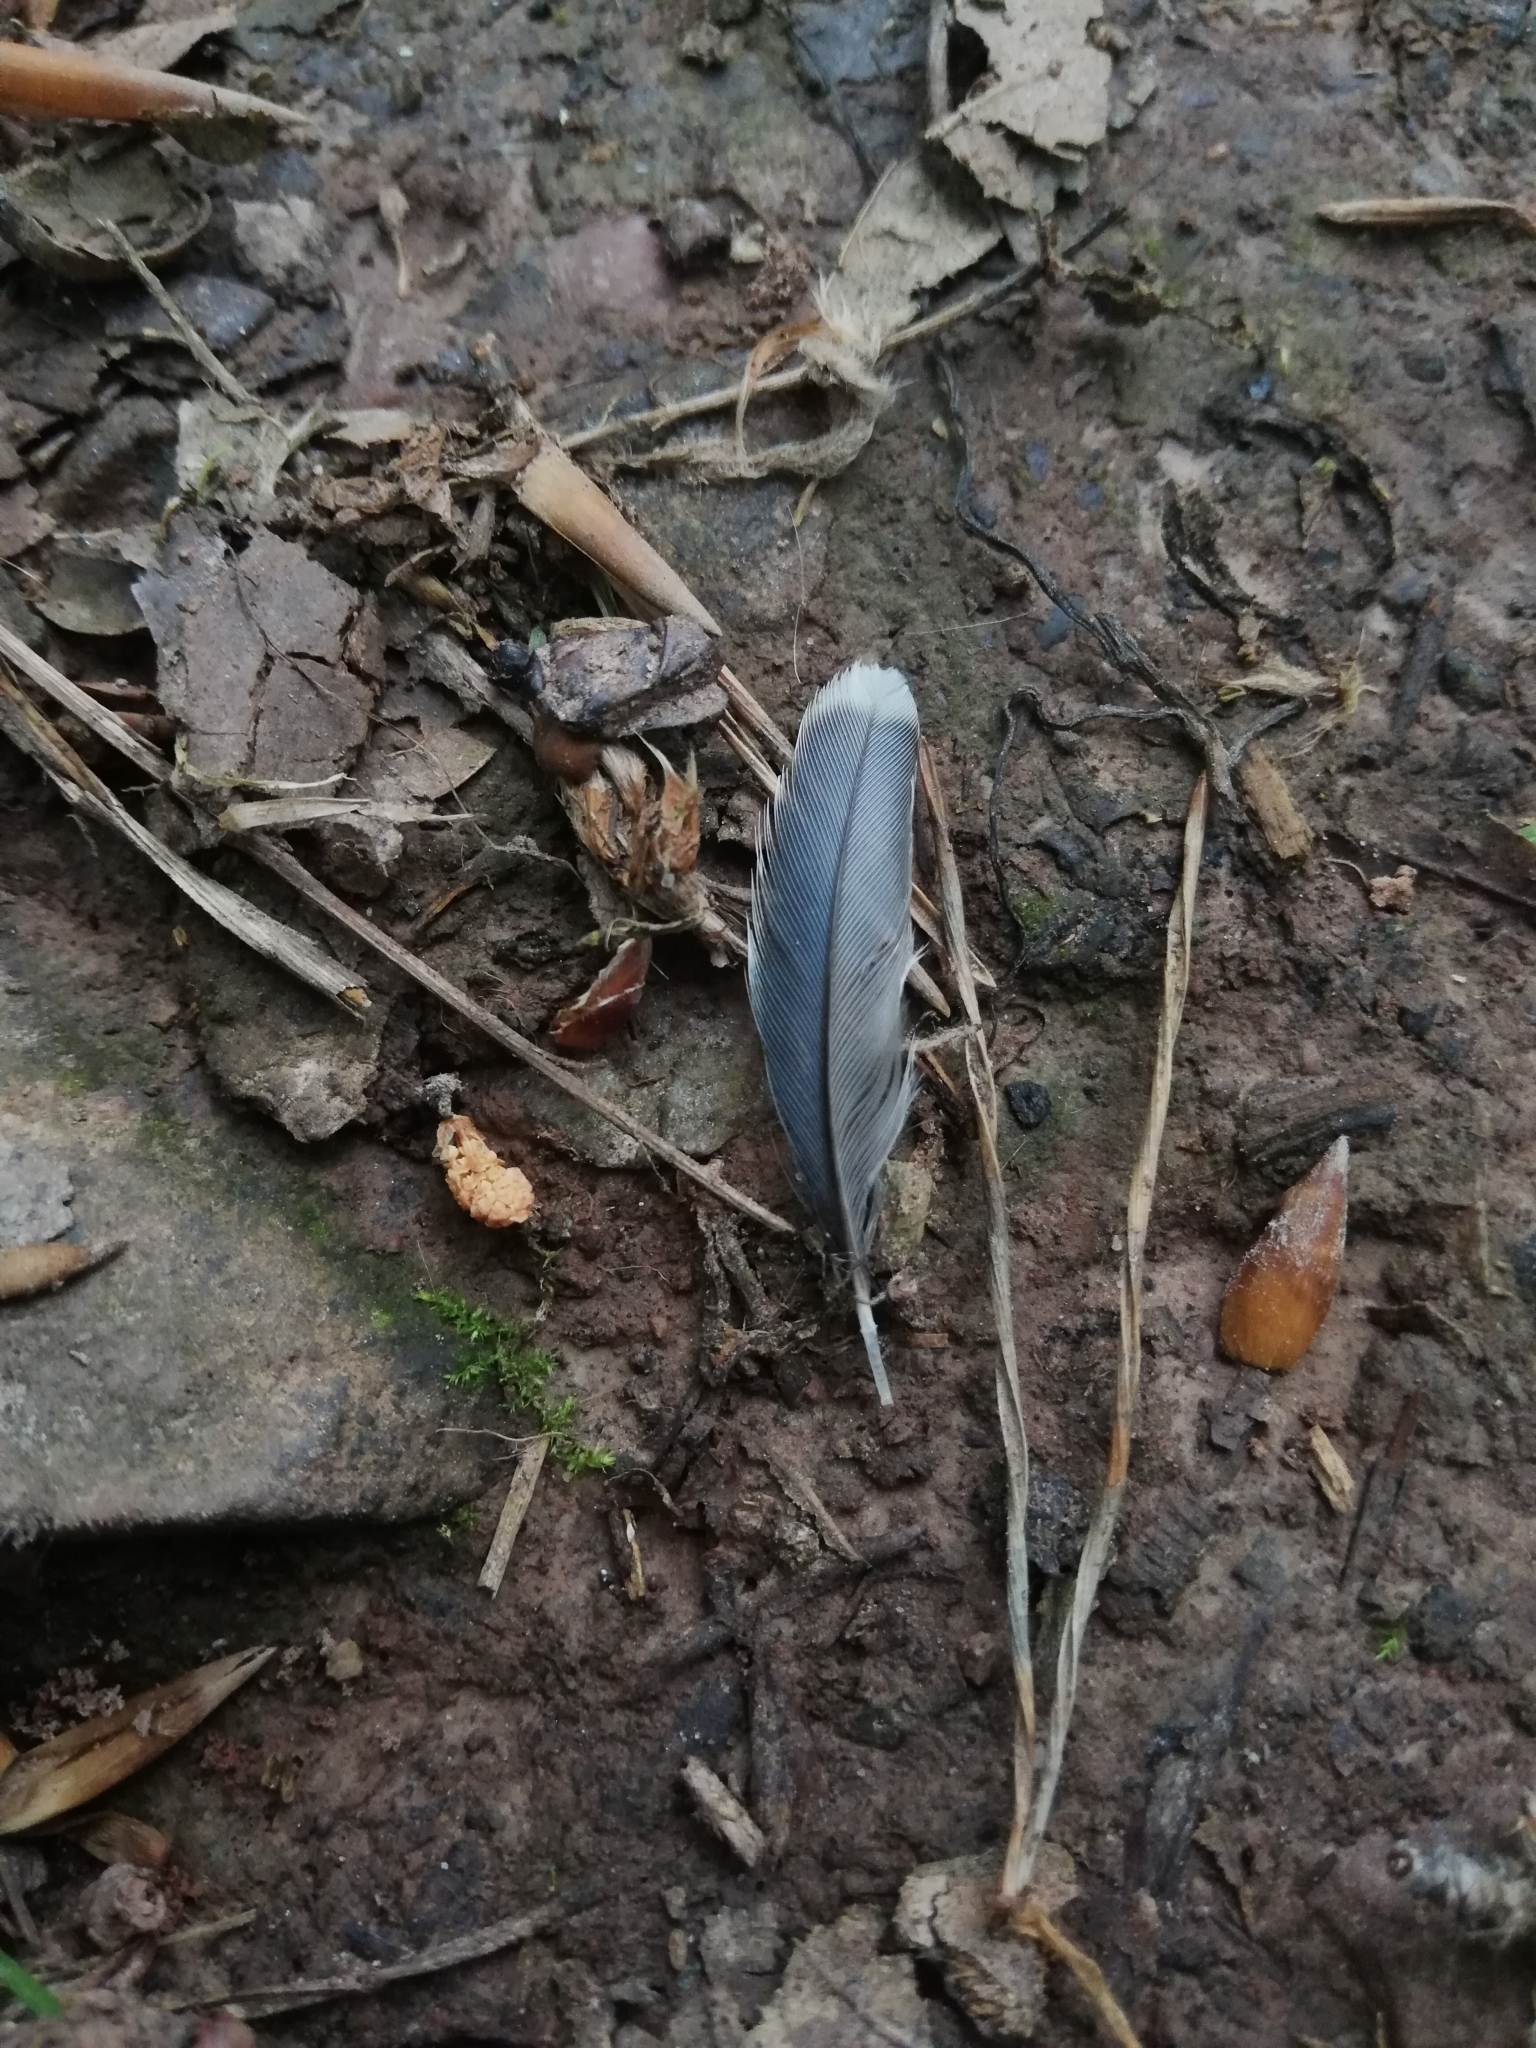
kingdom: Animalia
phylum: Chordata
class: Aves
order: Passeriformes
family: Paridae
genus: Cyanistes
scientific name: Cyanistes caeruleus
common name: Eurasian blue tit
